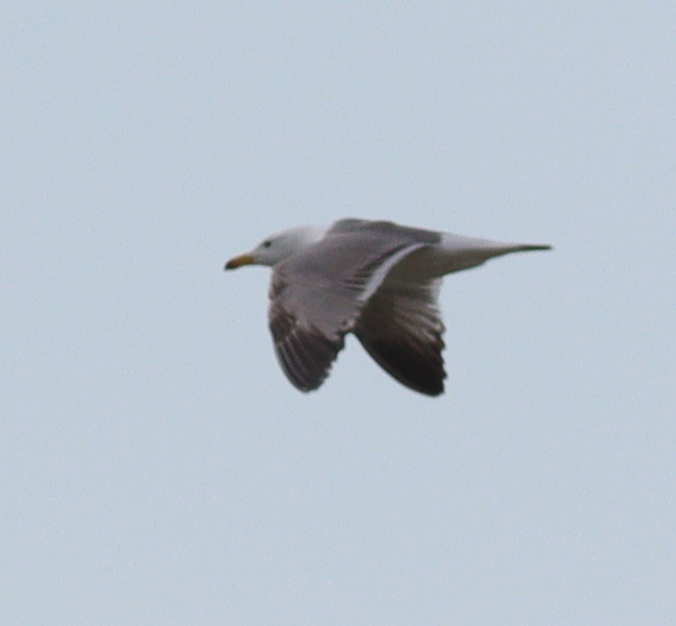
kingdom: Animalia
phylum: Chordata
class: Aves
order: Charadriiformes
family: Laridae
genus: Larus
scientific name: Larus armenicus
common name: Armenian gull
